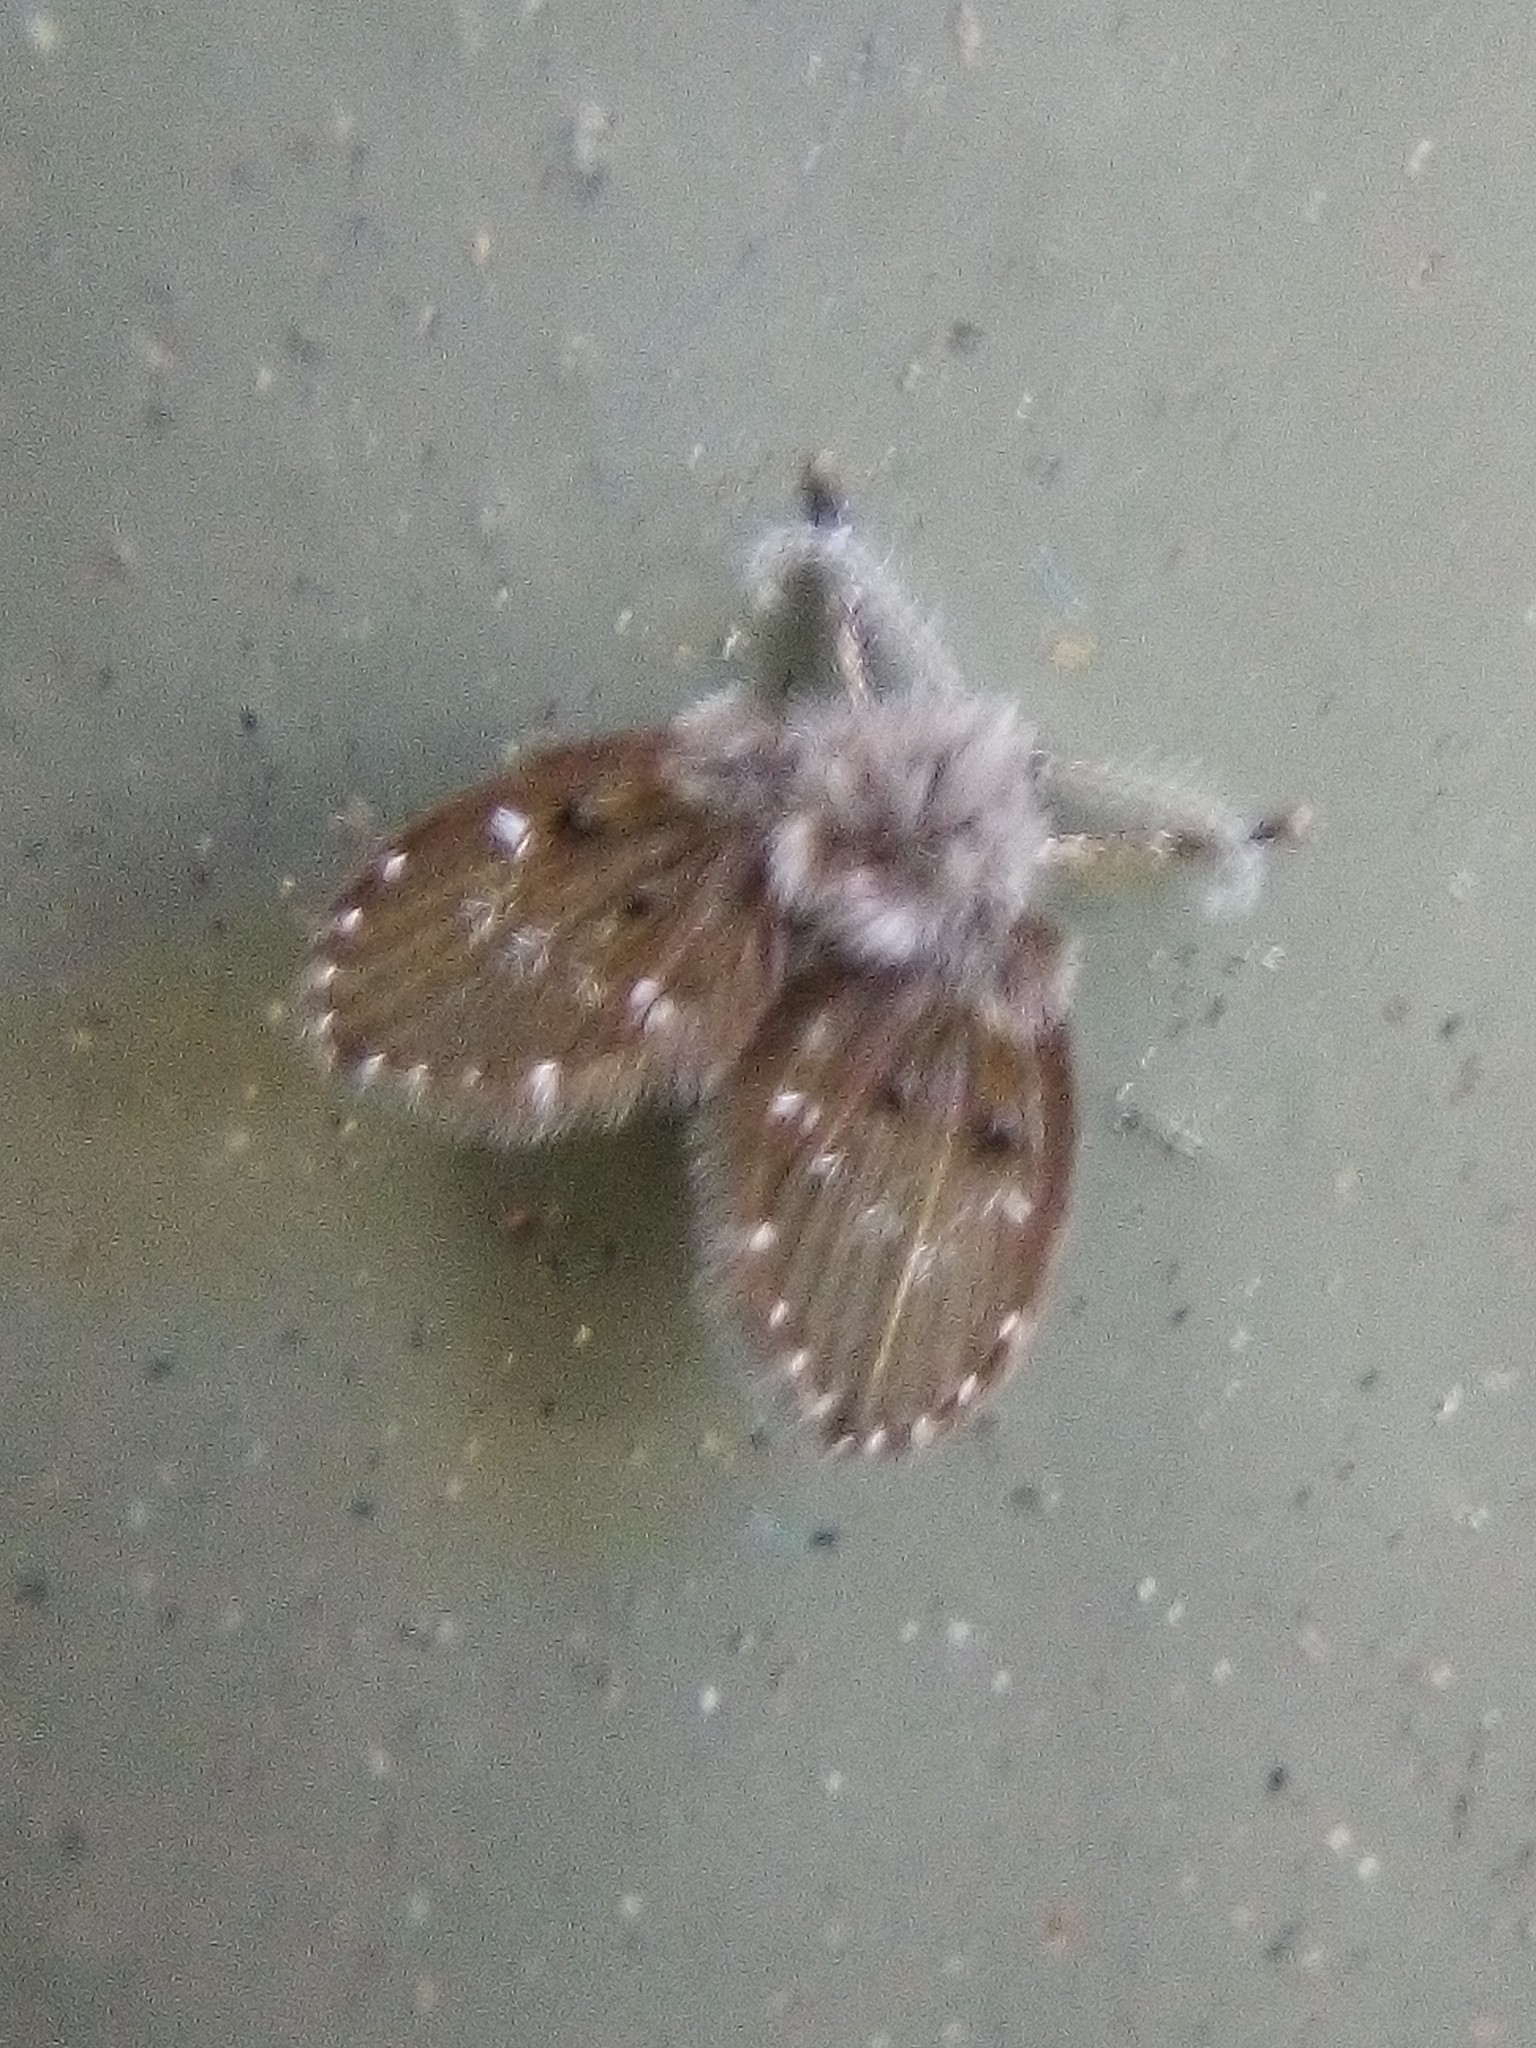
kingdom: Animalia
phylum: Arthropoda
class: Insecta
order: Diptera
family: Psychodidae
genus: Clogmia
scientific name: Clogmia albipunctatus
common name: White-spotted moth fly
